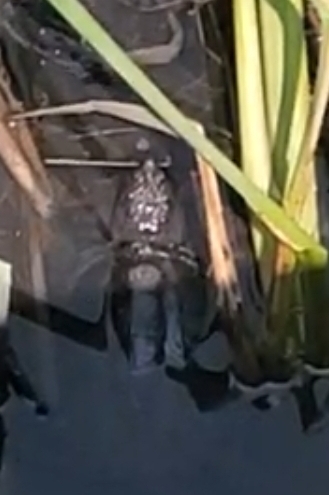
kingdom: Animalia
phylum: Chordata
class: Testudines
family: Chelydridae
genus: Chelydra
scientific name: Chelydra serpentina
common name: Common snapping turtle
